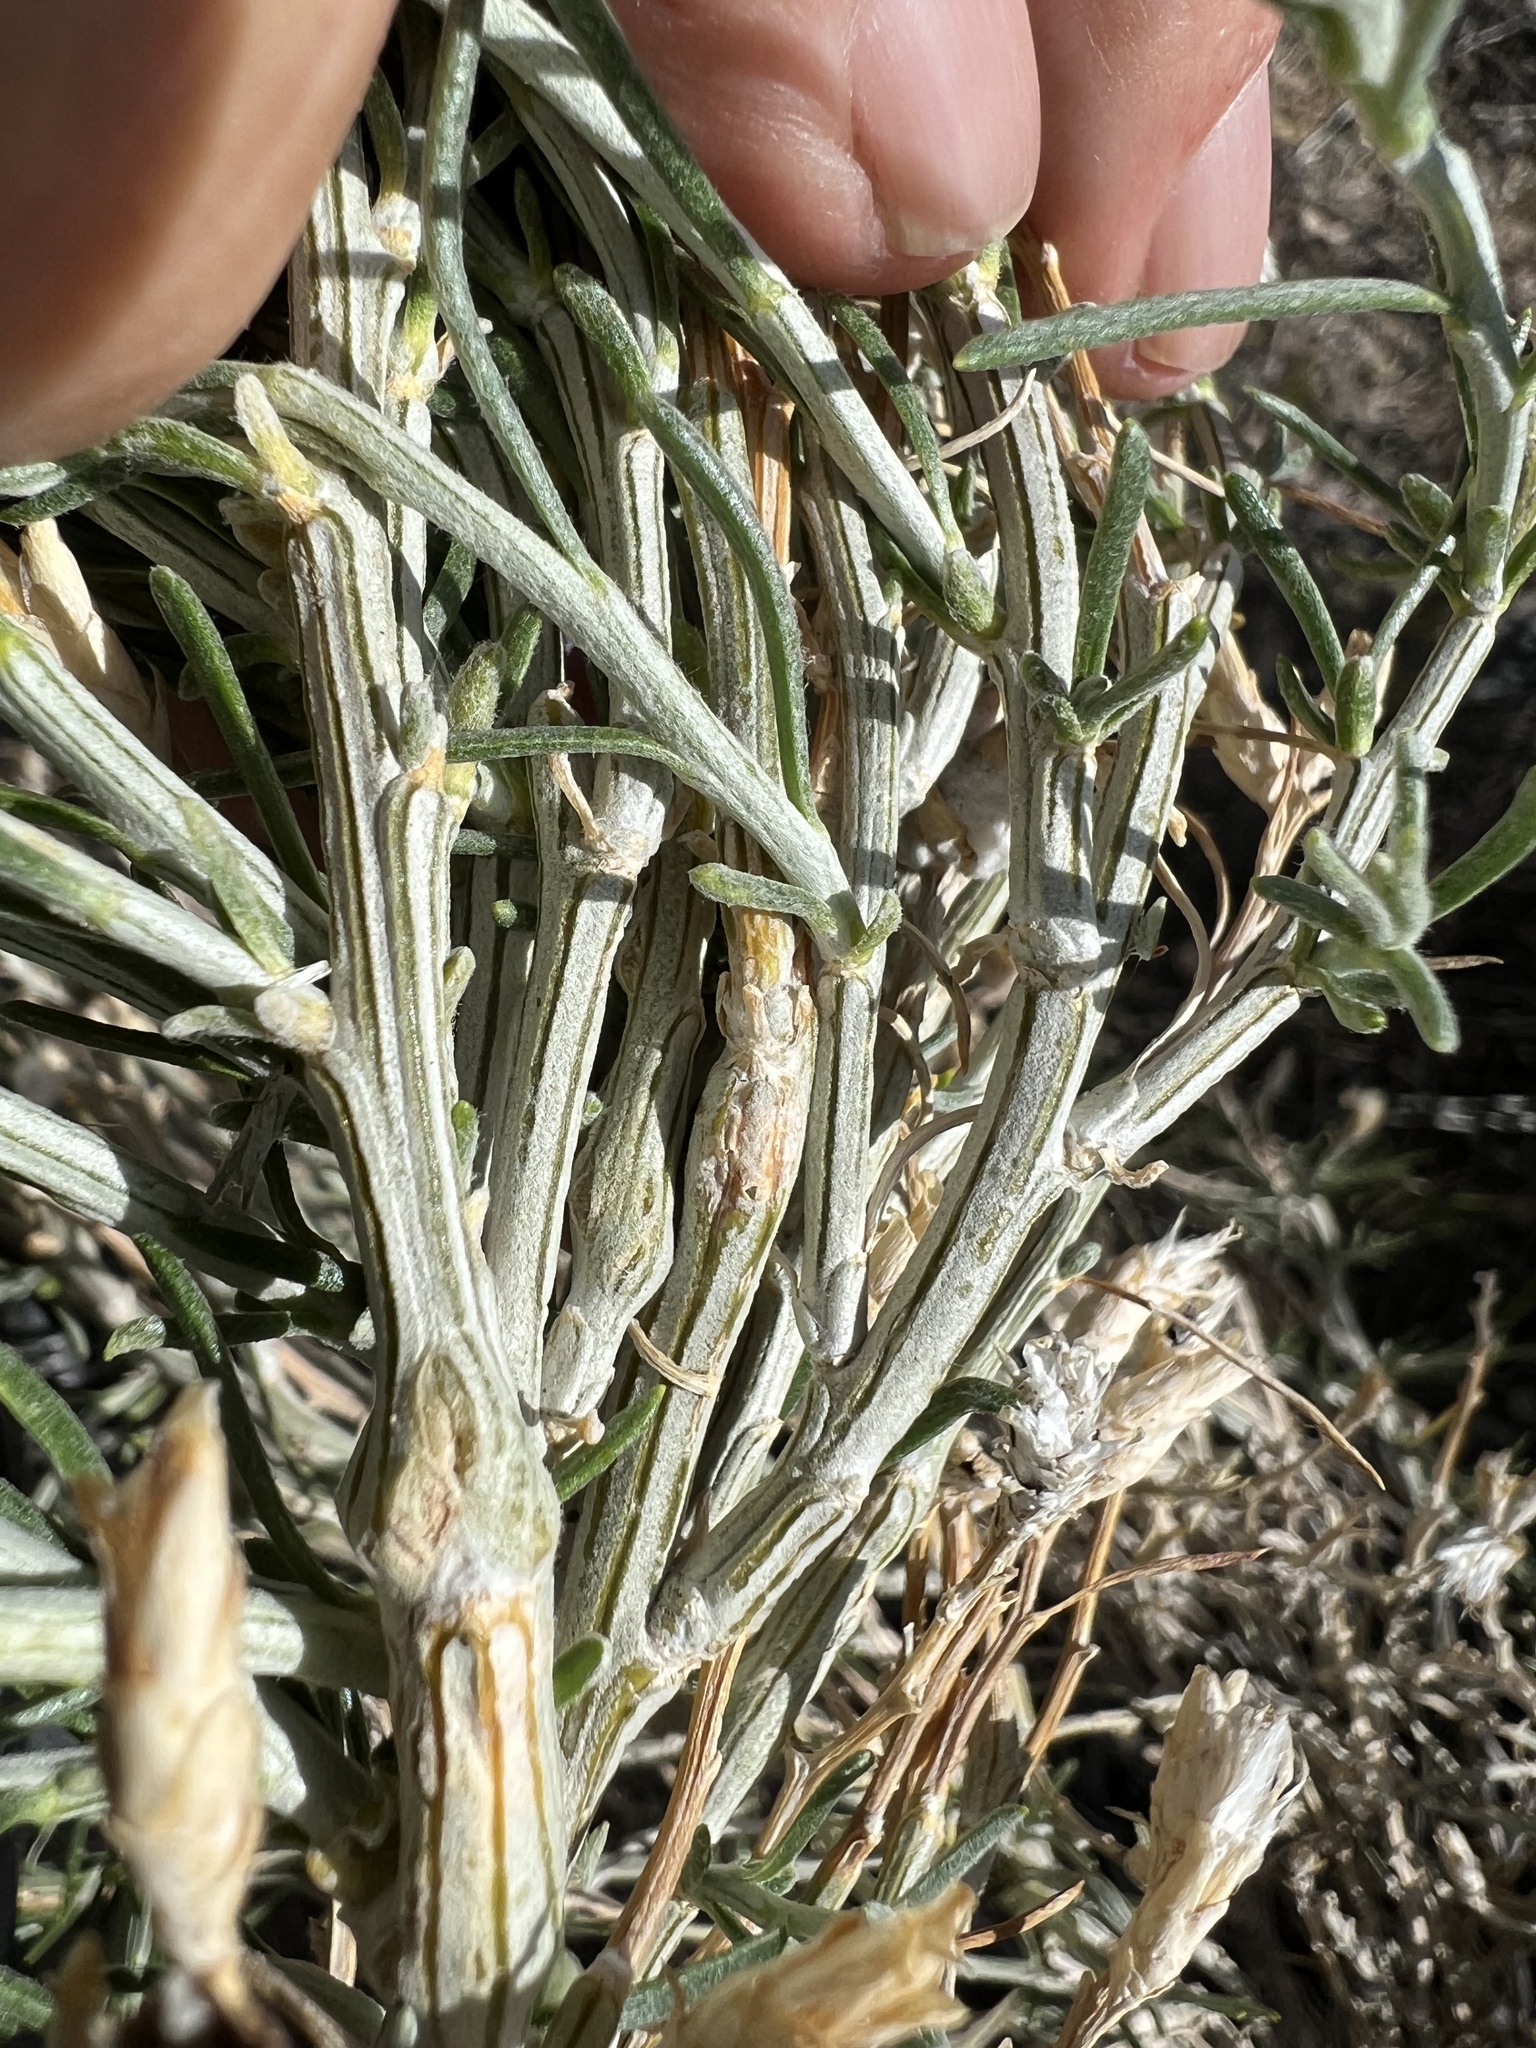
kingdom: Plantae
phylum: Tracheophyta
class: Magnoliopsida
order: Asterales
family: Asteraceae
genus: Lepidospartum
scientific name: Lepidospartum latisquamum
